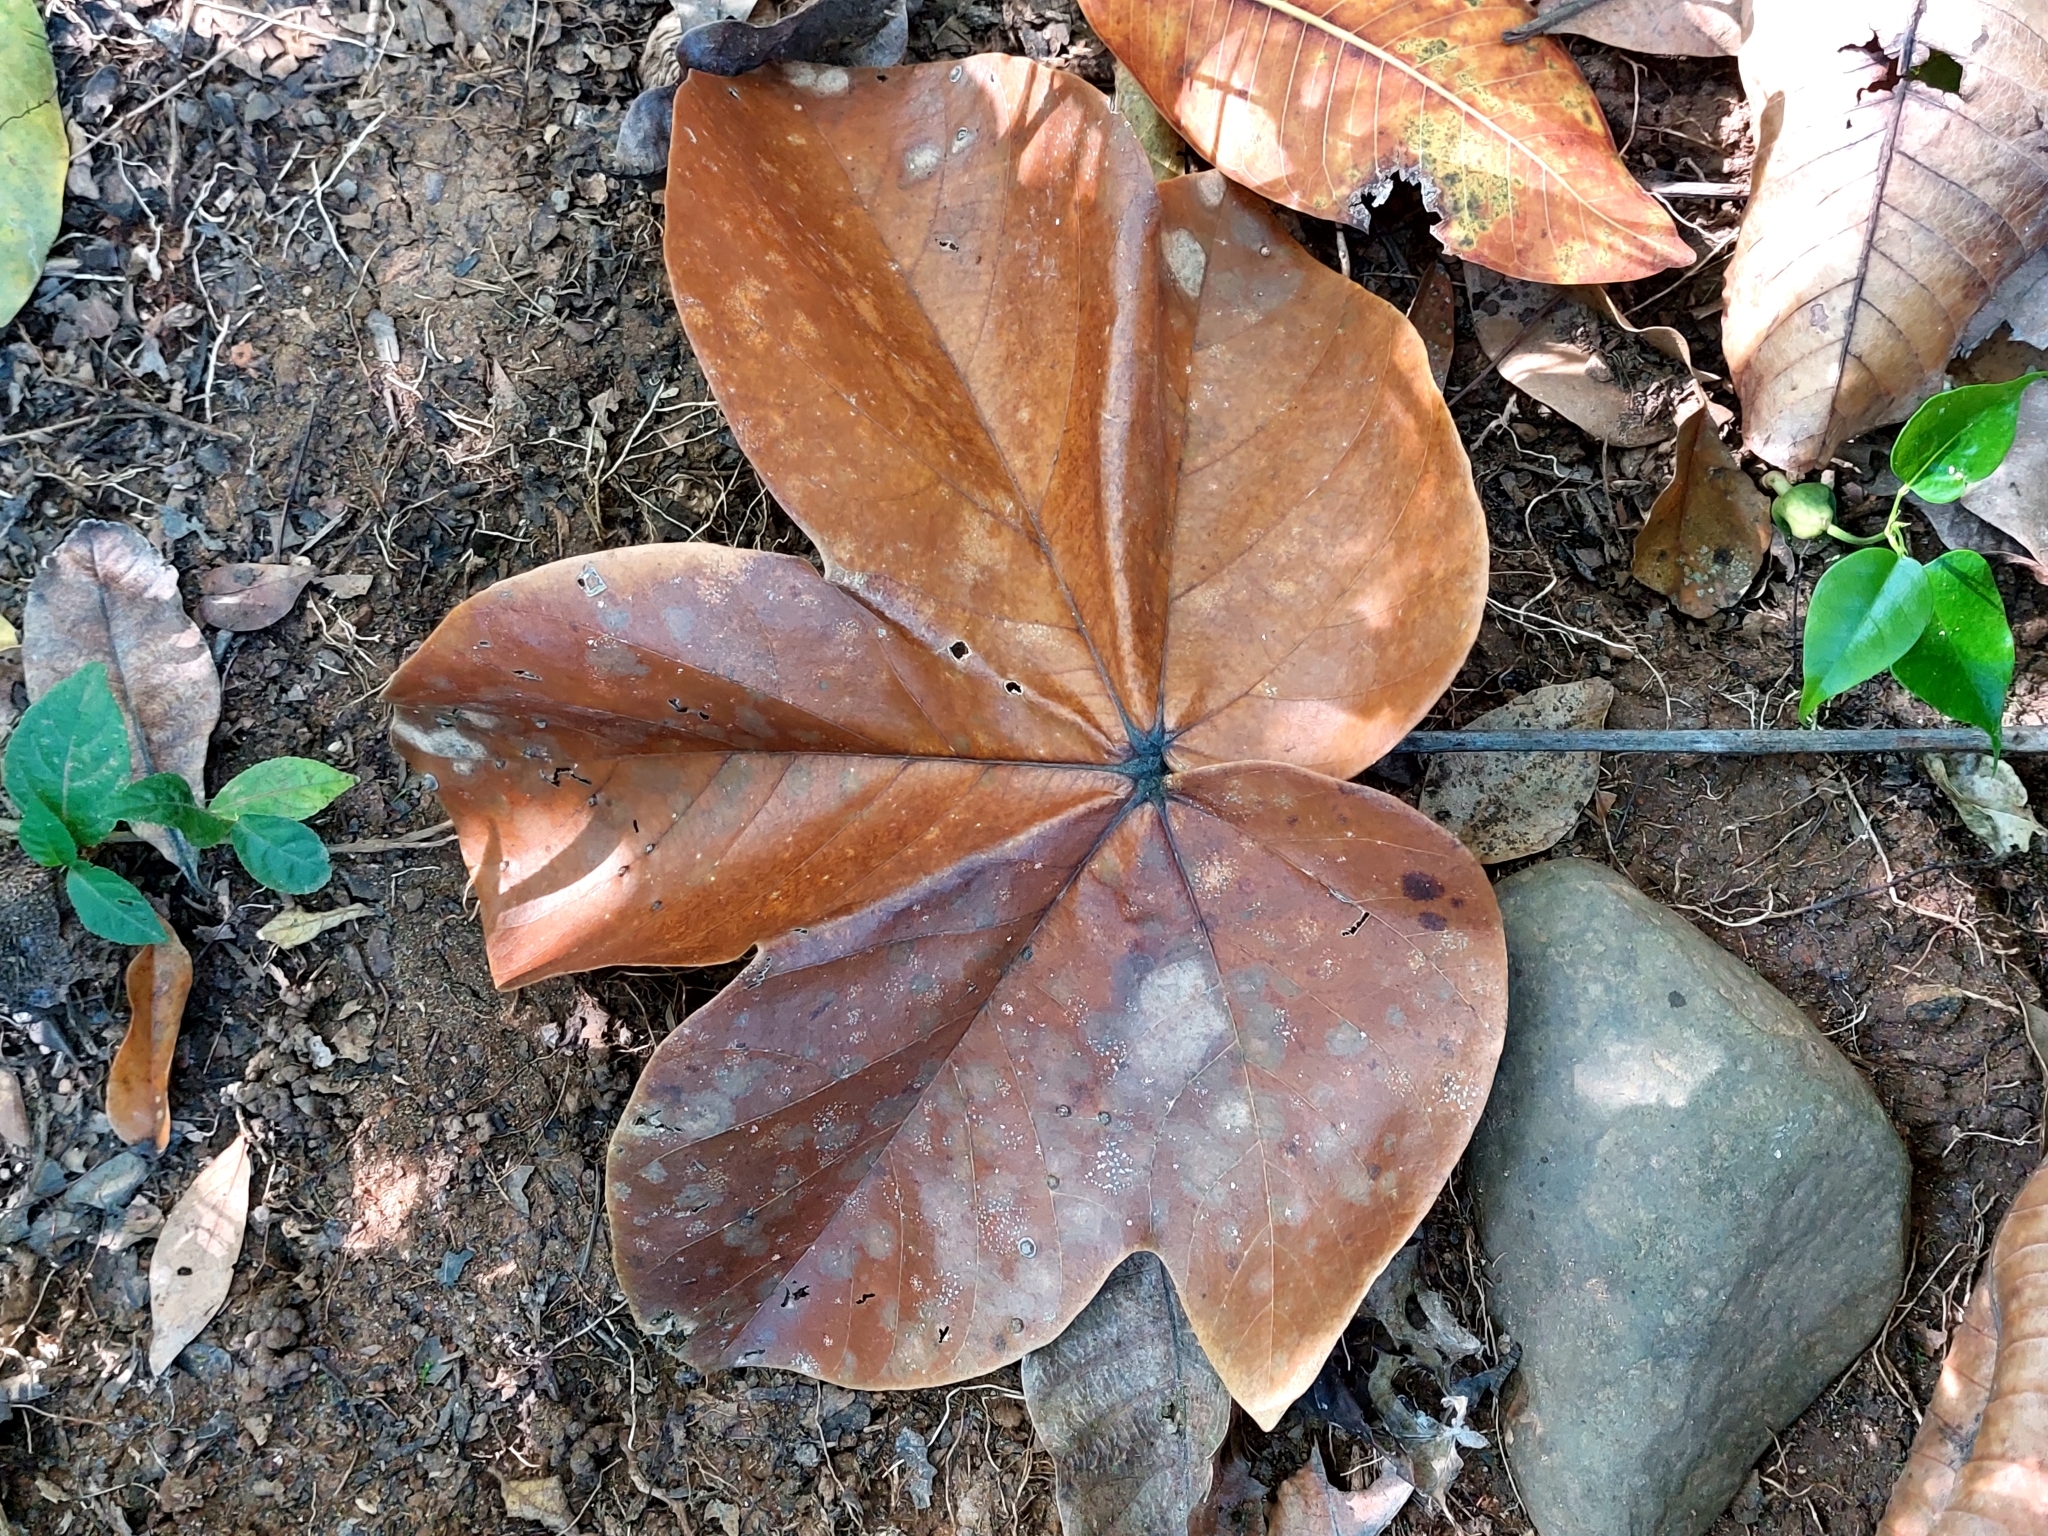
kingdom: Plantae
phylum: Tracheophyta
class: Magnoliopsida
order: Malvales
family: Malvaceae
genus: Sterculia
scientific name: Sterculia apetala
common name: Panama tree
